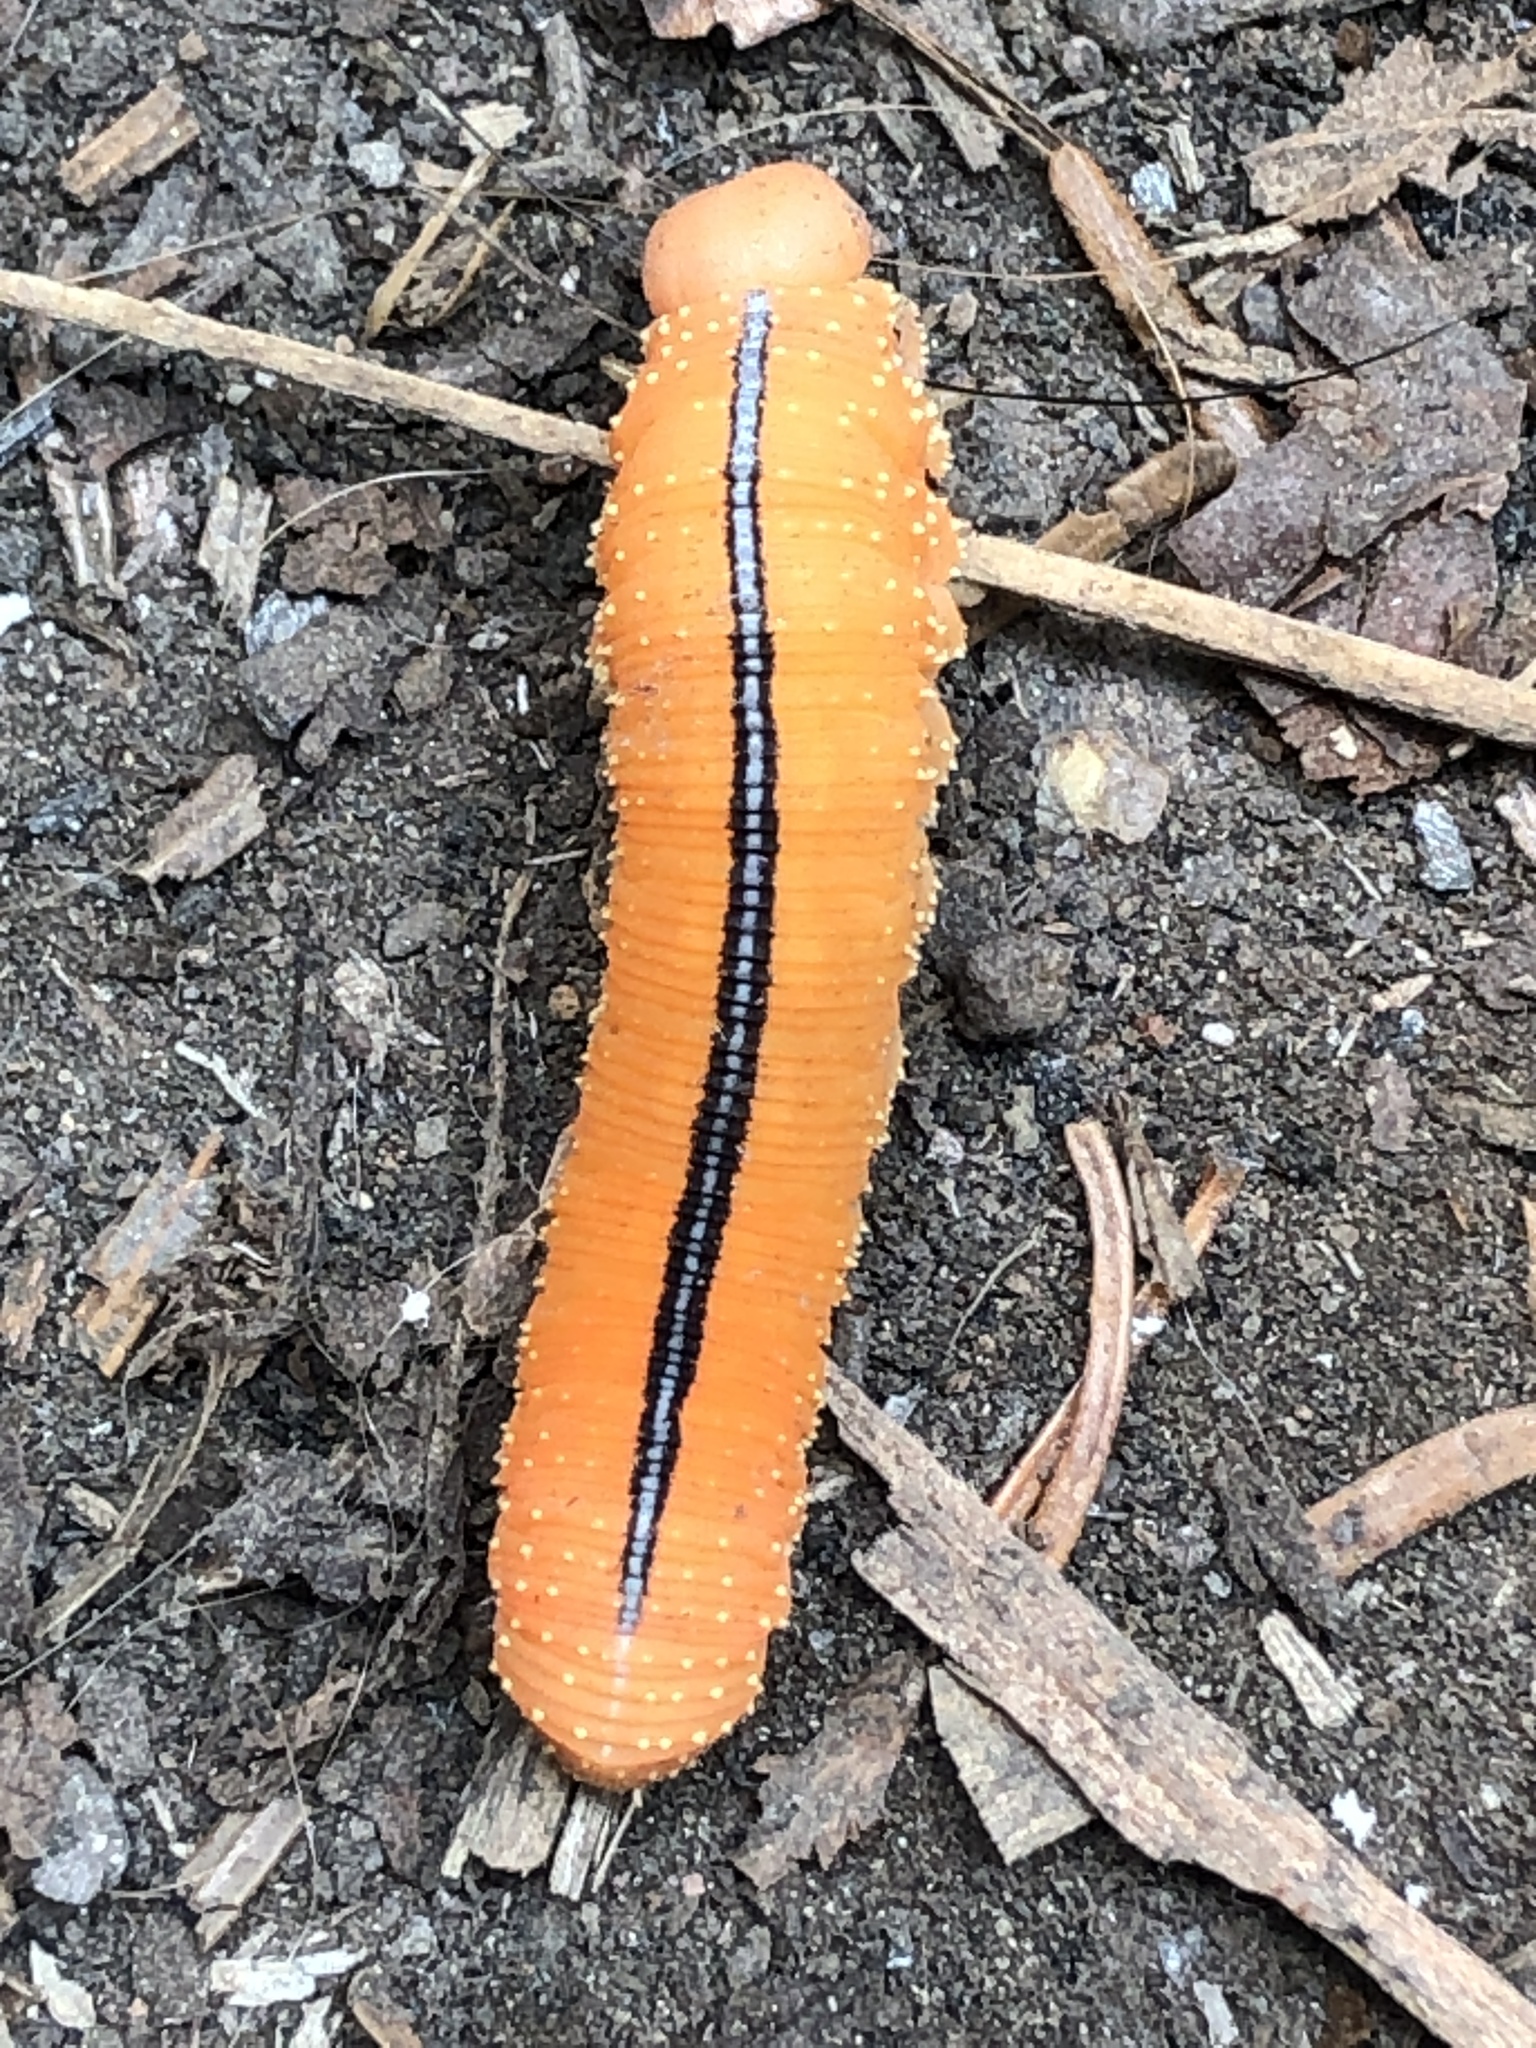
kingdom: Animalia
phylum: Arthropoda
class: Insecta
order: Hymenoptera
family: Cimbicidae
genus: Cimbex
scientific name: Cimbex americana
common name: Elm sawfly
